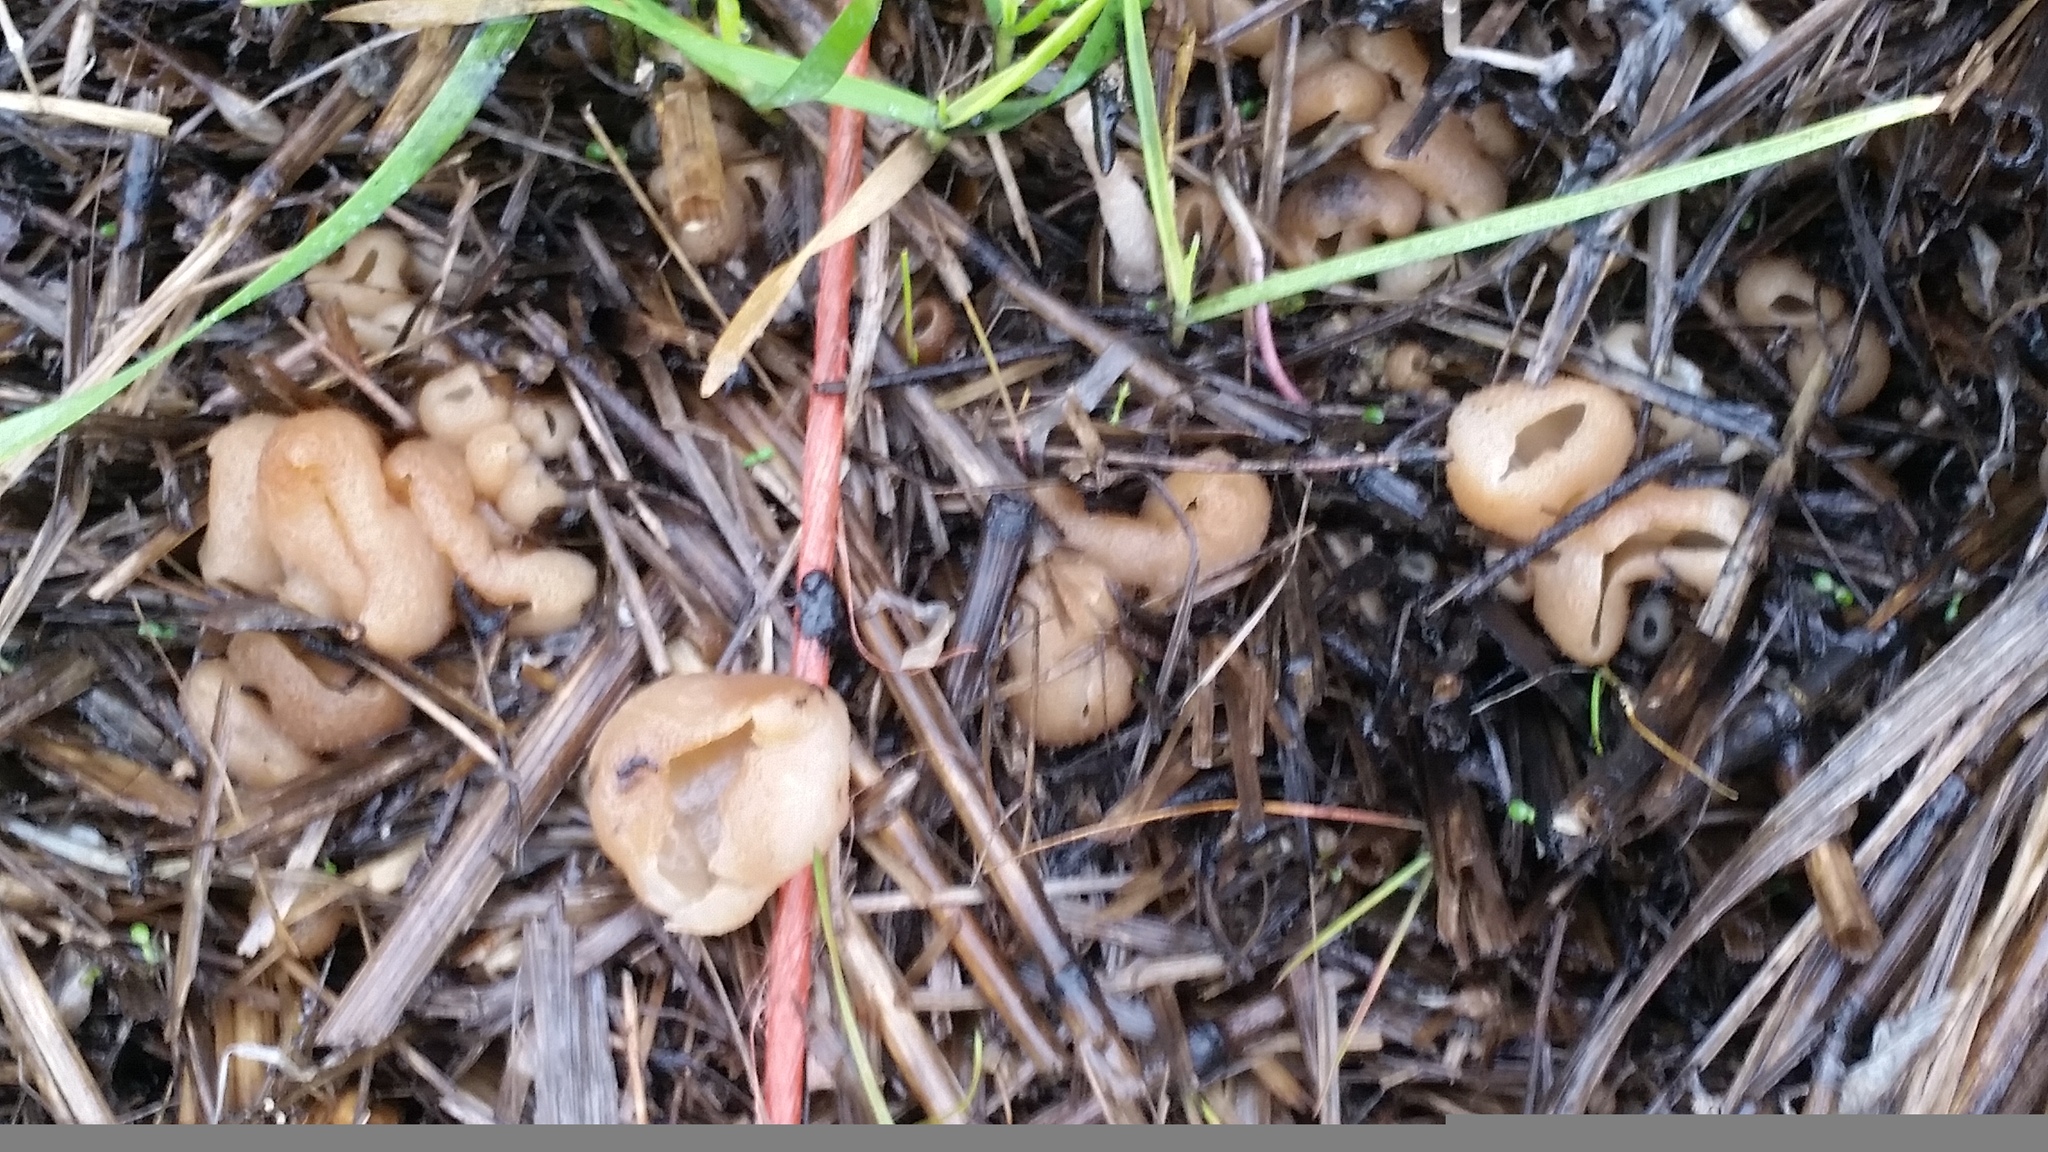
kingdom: Fungi
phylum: Ascomycota
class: Pezizomycetes
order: Pezizales
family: Pezizaceae
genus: Peziza
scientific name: Peziza vesiculosa
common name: Blistered cup
